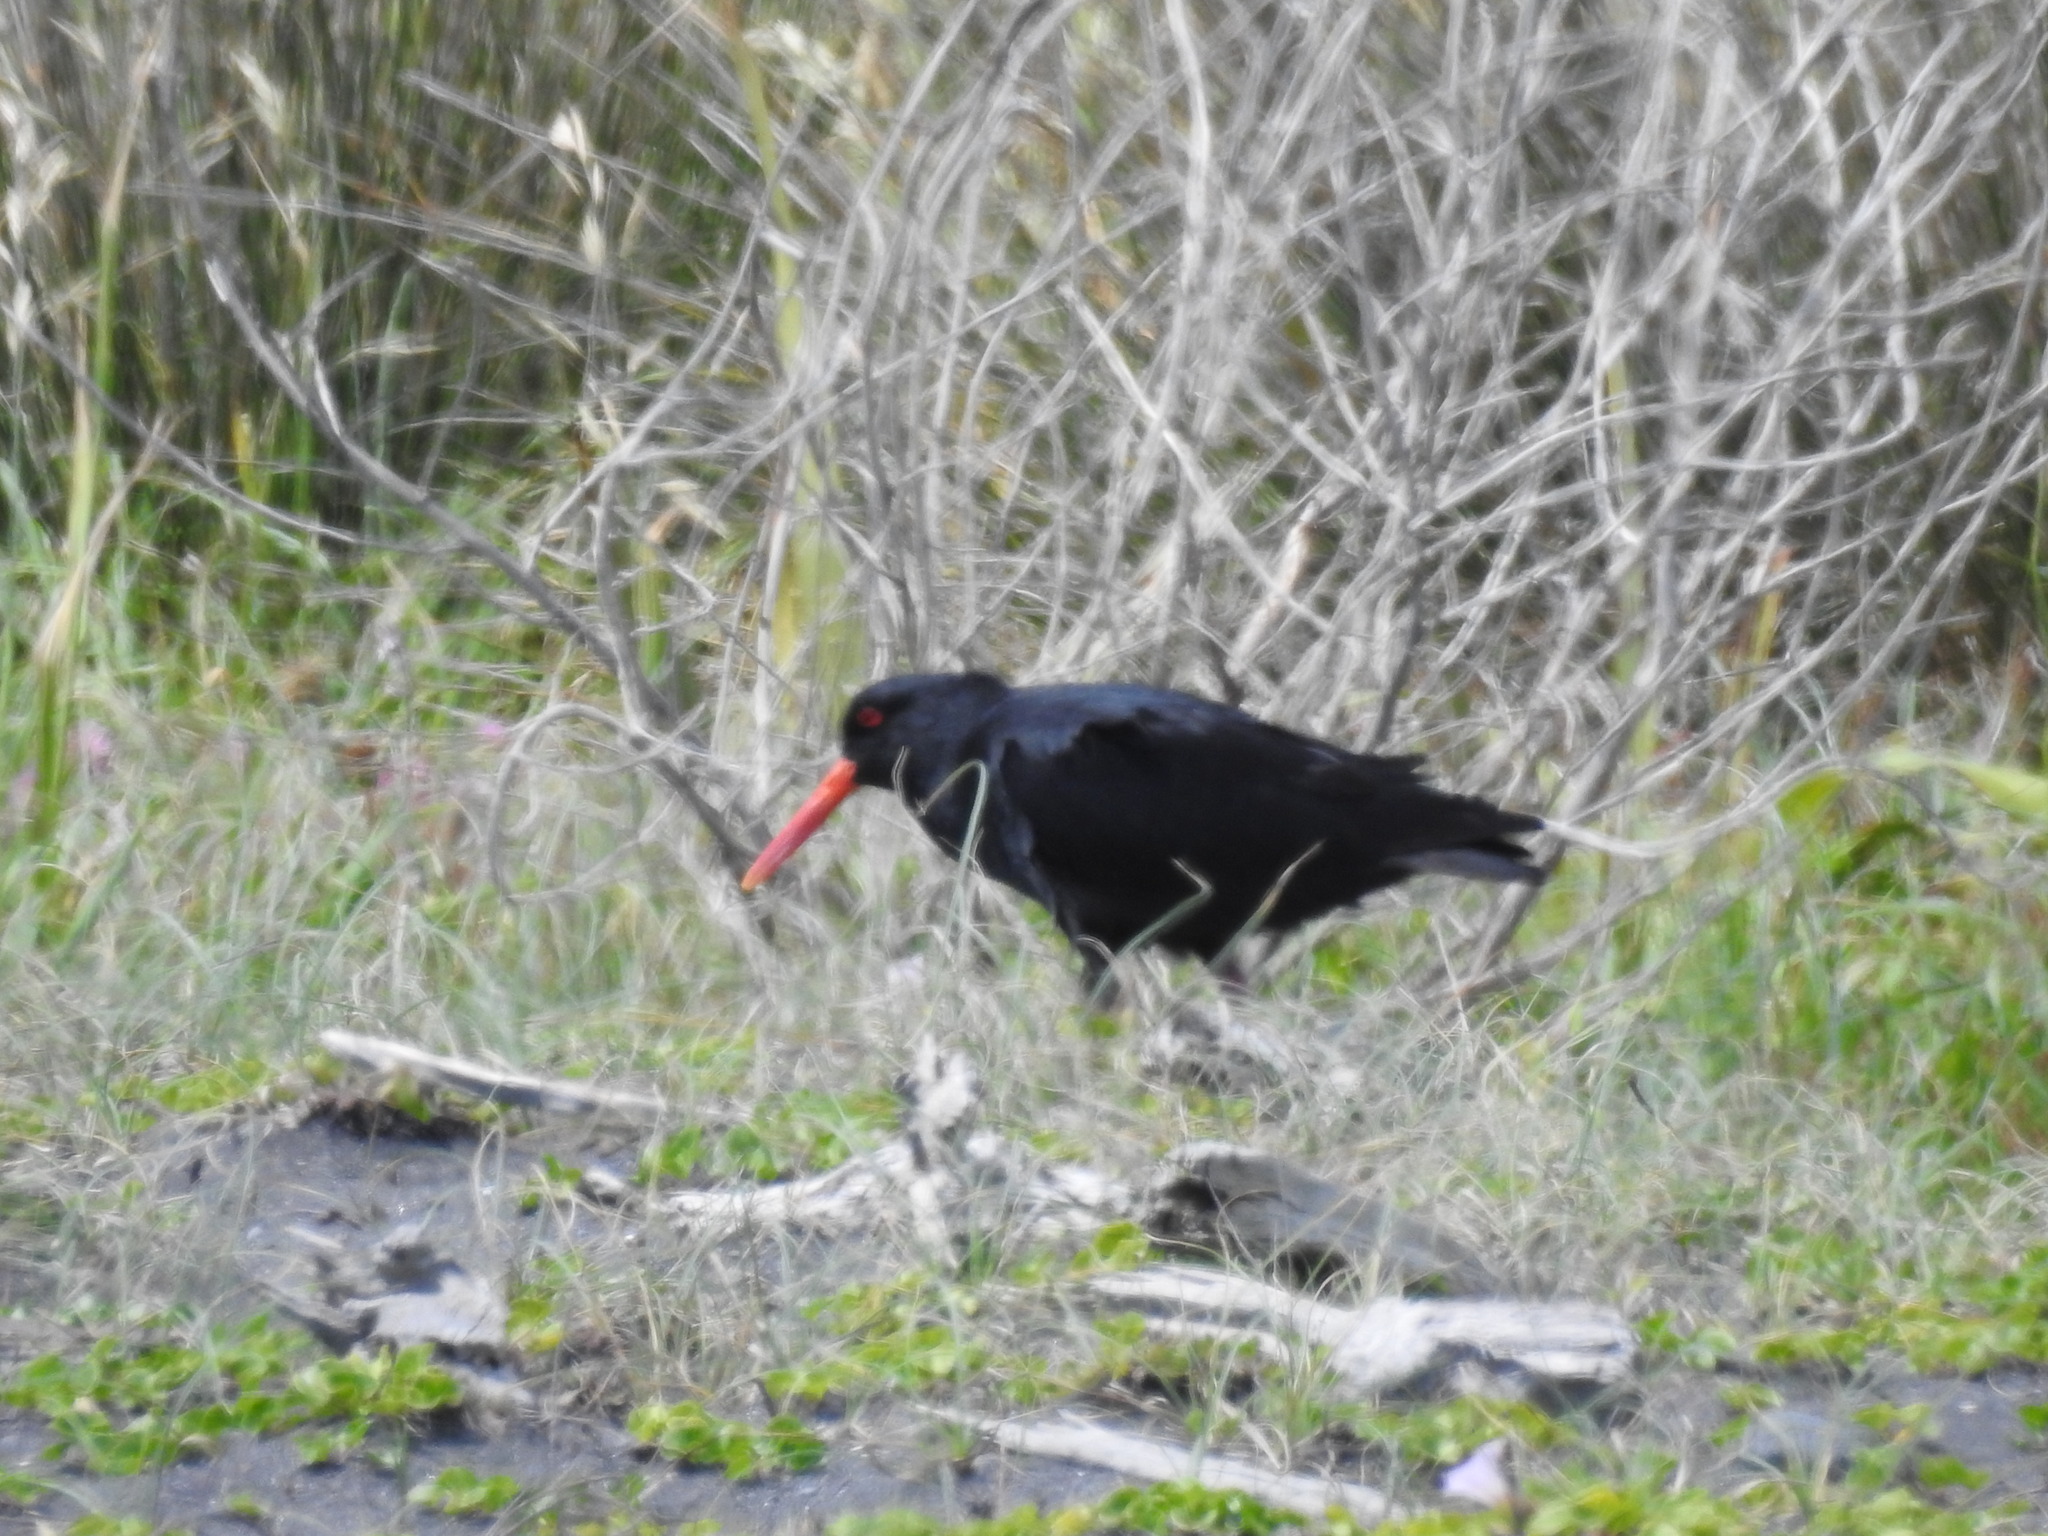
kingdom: Animalia
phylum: Chordata
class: Aves
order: Charadriiformes
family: Haematopodidae
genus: Haematopus
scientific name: Haematopus unicolor
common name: Variable oystercatcher
